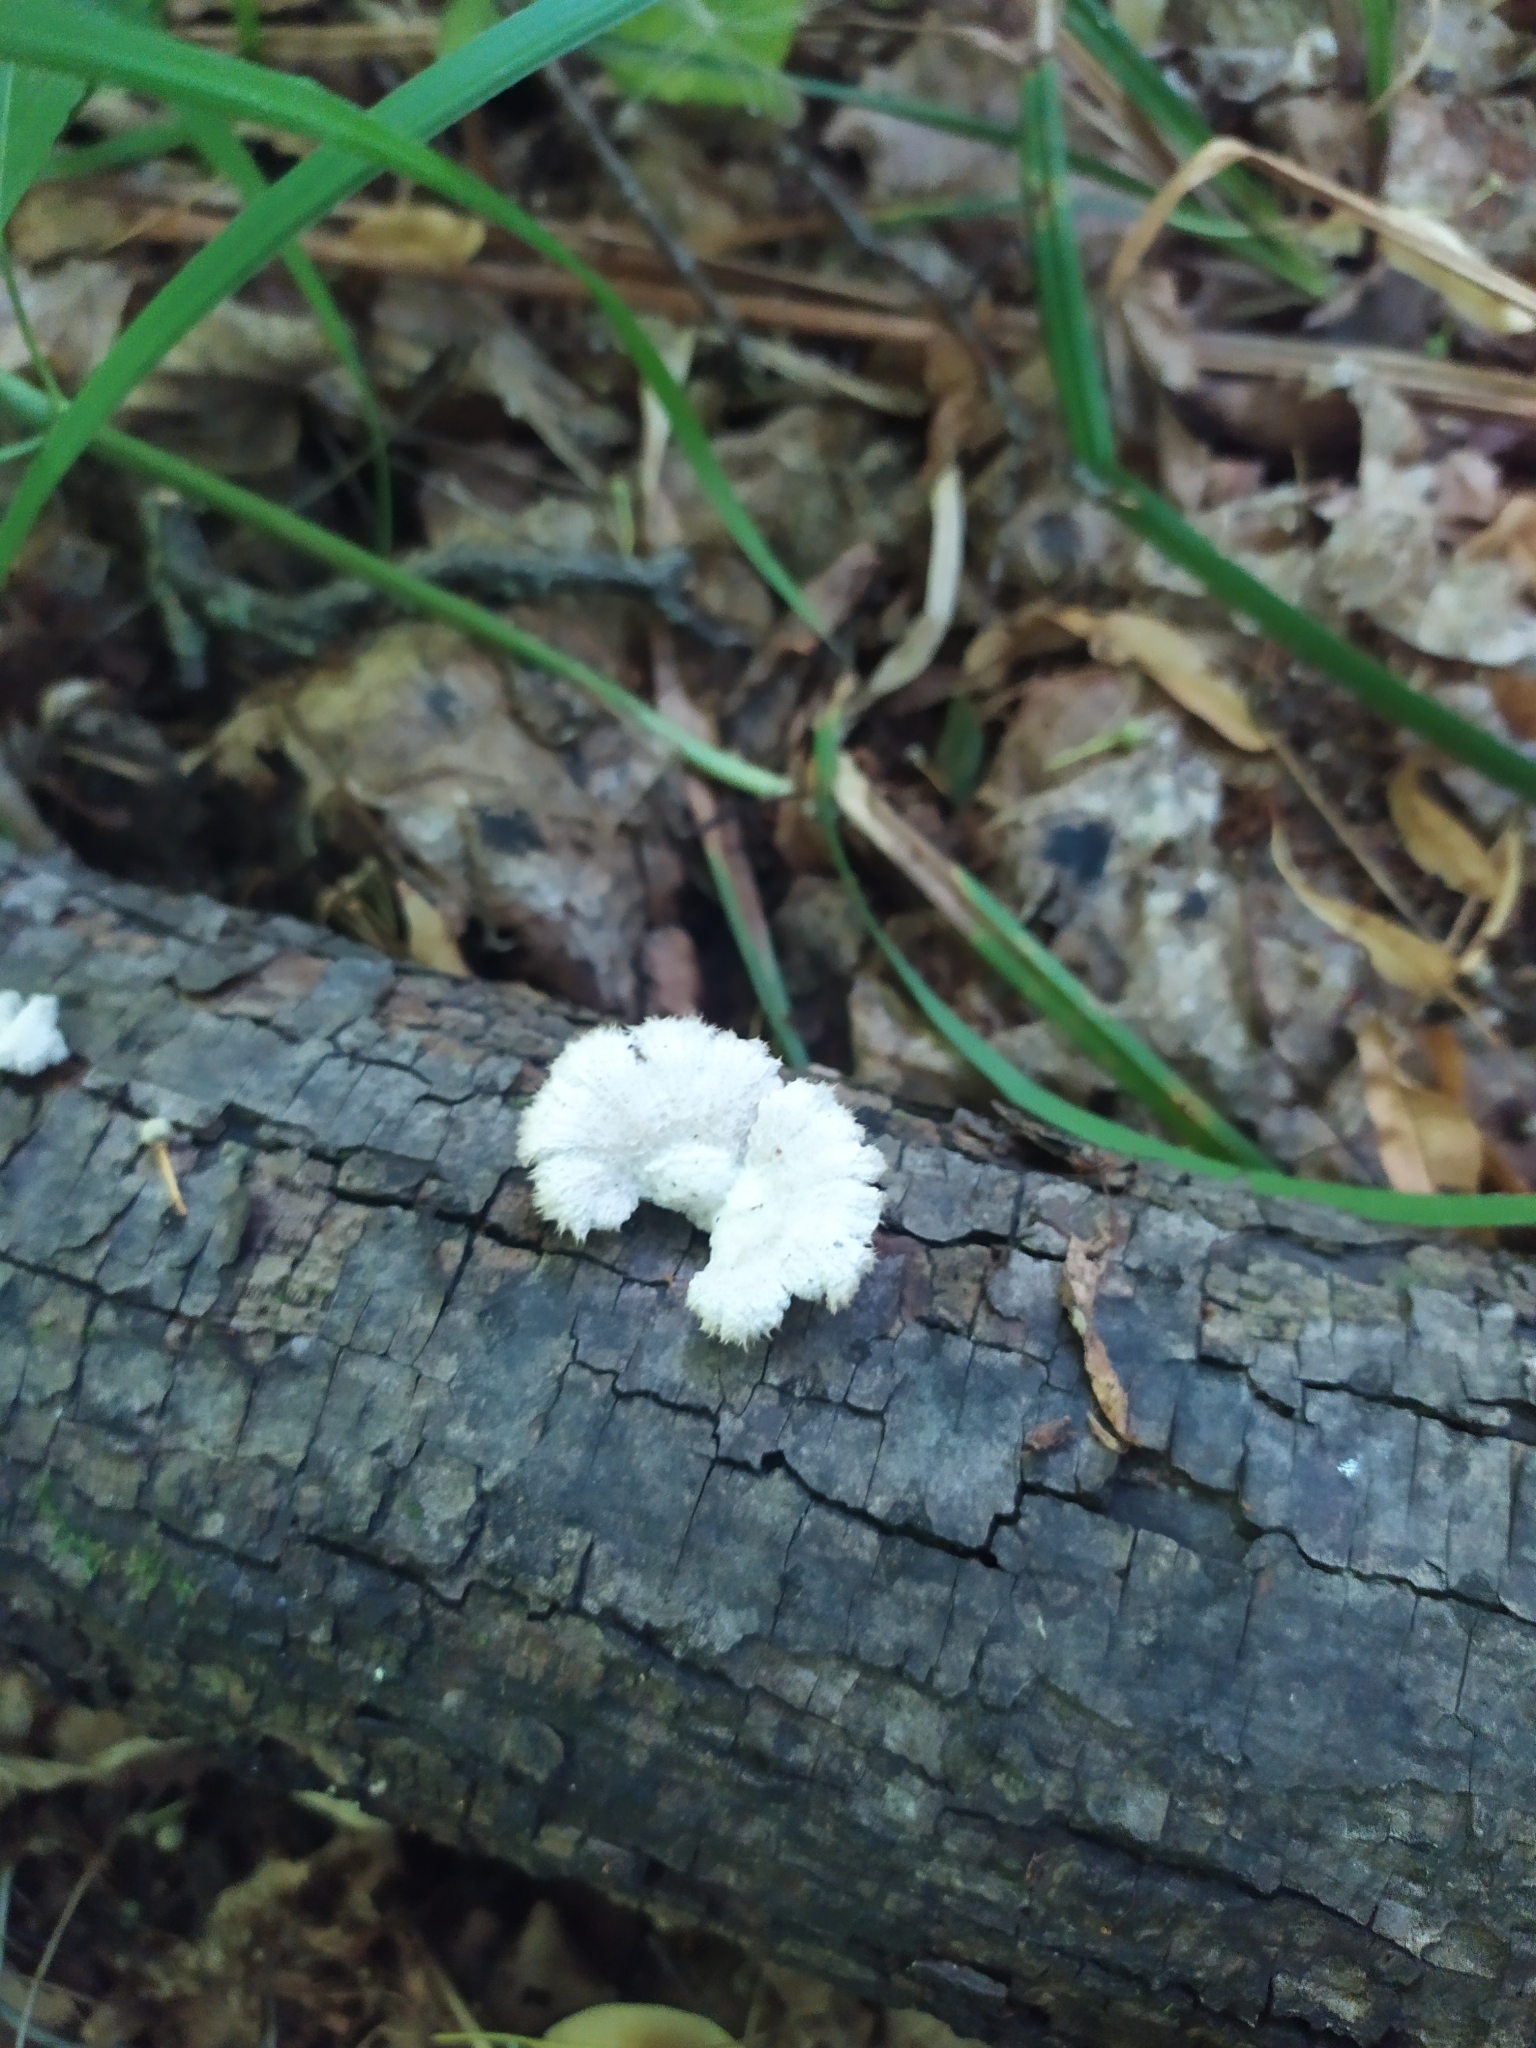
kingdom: Fungi
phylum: Basidiomycota
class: Agaricomycetes
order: Agaricales
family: Schizophyllaceae
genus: Schizophyllum
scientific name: Schizophyllum commune
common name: Common porecrust
